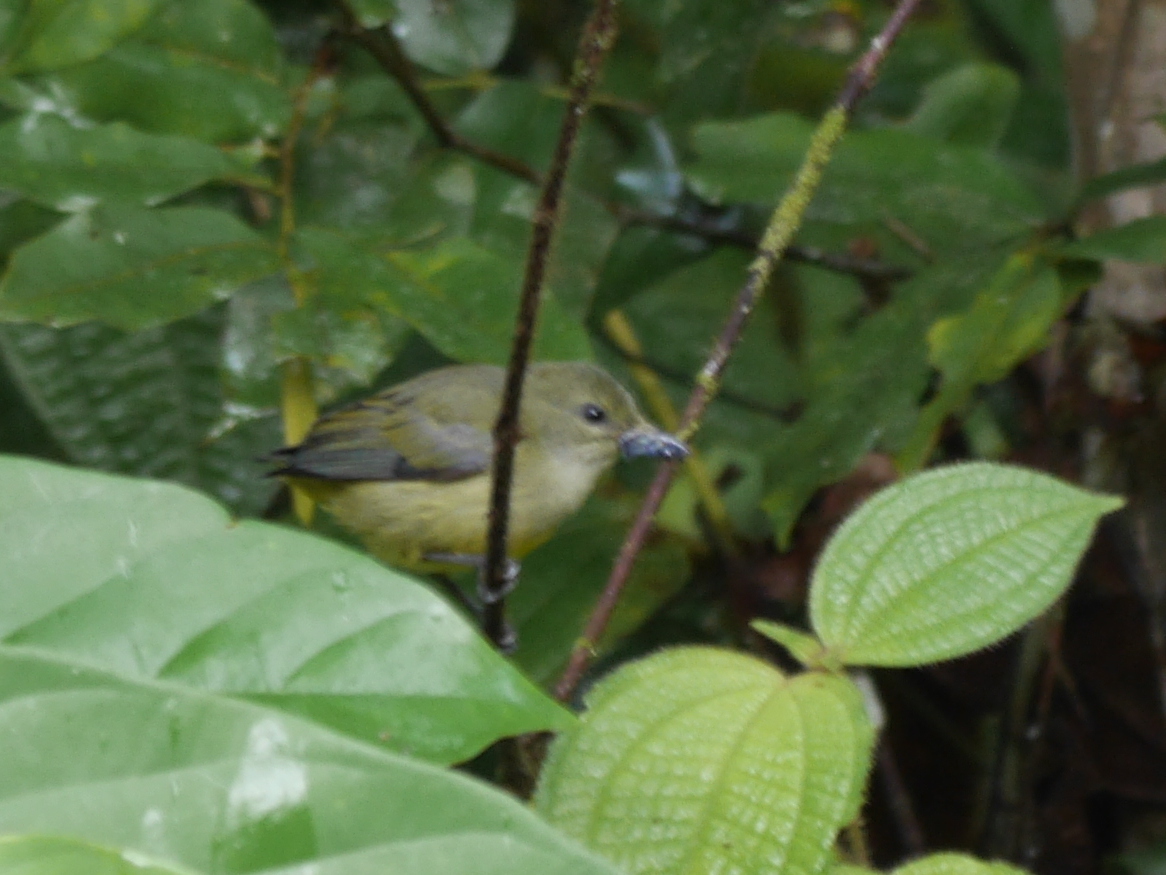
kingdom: Animalia
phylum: Chordata
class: Aves
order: Passeriformes
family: Dicaeidae
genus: Dicaeum
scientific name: Dicaeum trigonostigma
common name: Orange-bellied flowerpecker
